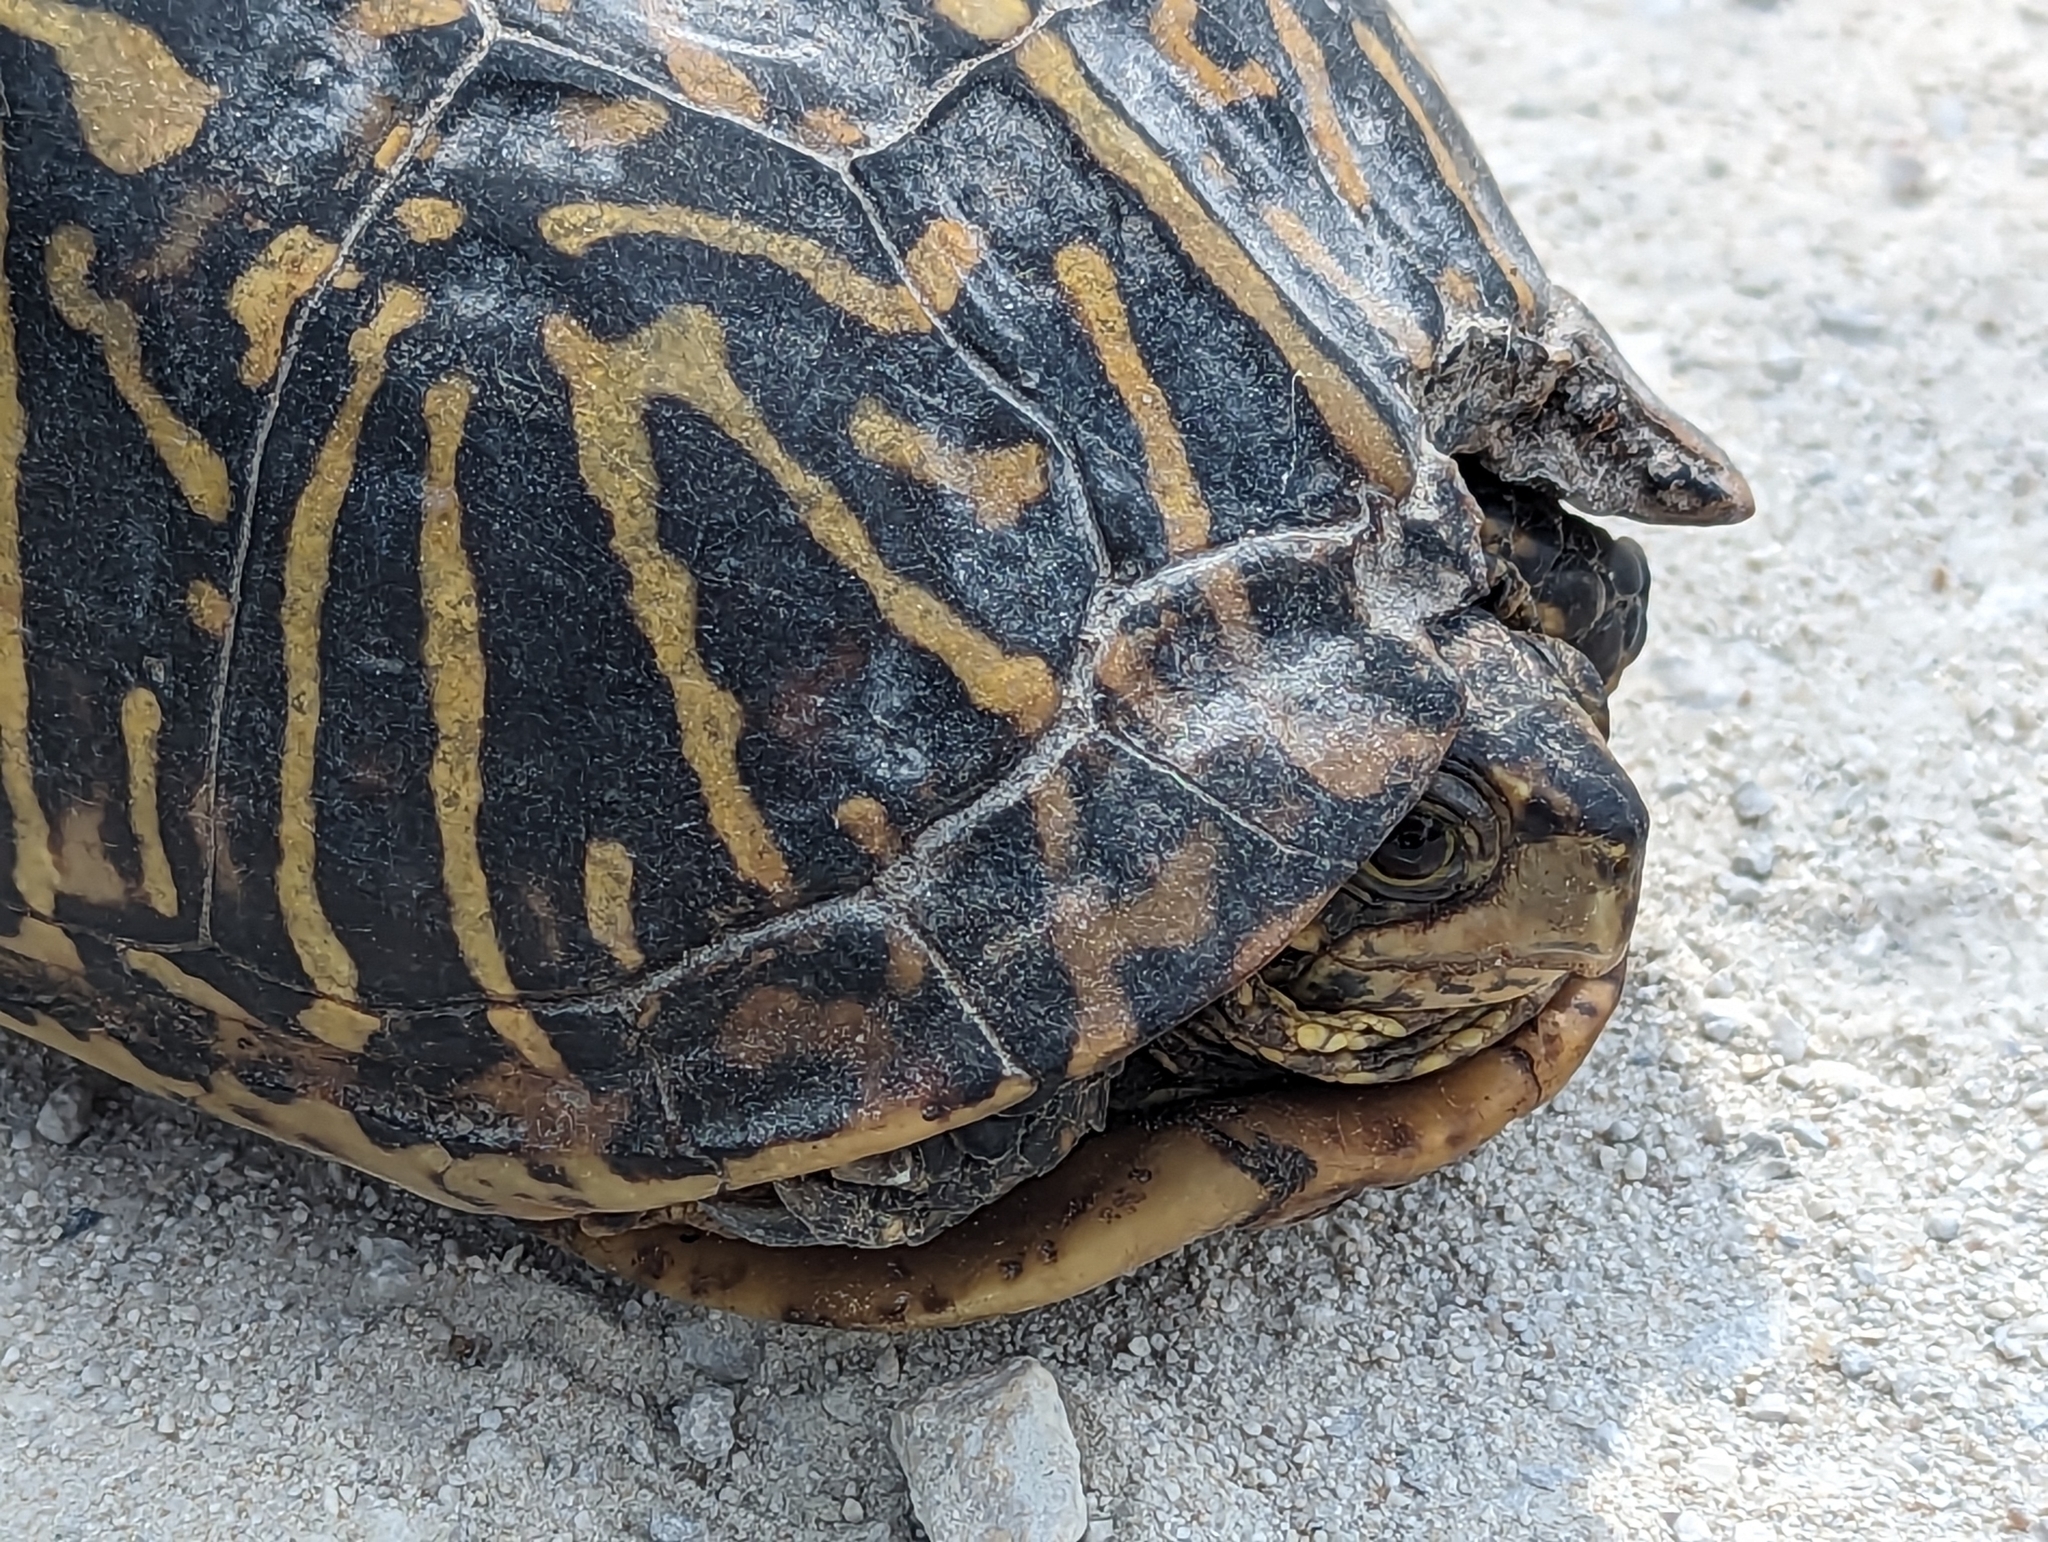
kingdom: Animalia
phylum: Chordata
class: Testudines
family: Emydidae
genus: Terrapene
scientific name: Terrapene carolina
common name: Common box turtle
